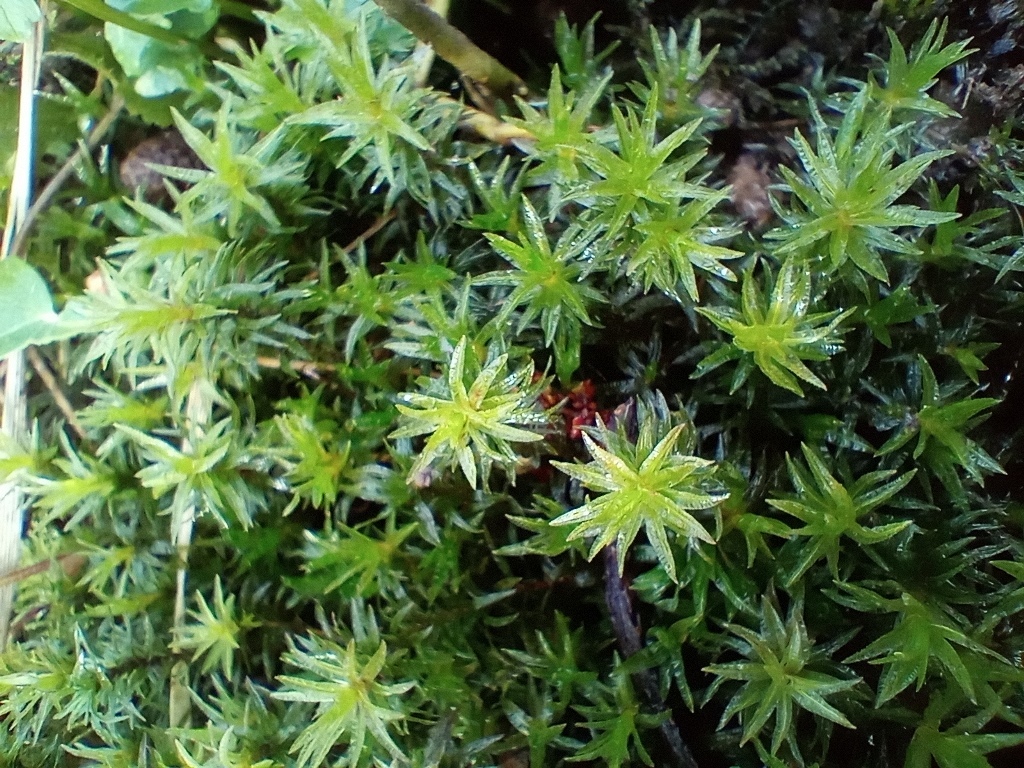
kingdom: Plantae
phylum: Bryophyta
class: Polytrichopsida
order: Polytrichales
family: Polytrichaceae
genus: Atrichum
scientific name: Atrichum undulatum
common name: Common smoothcap
